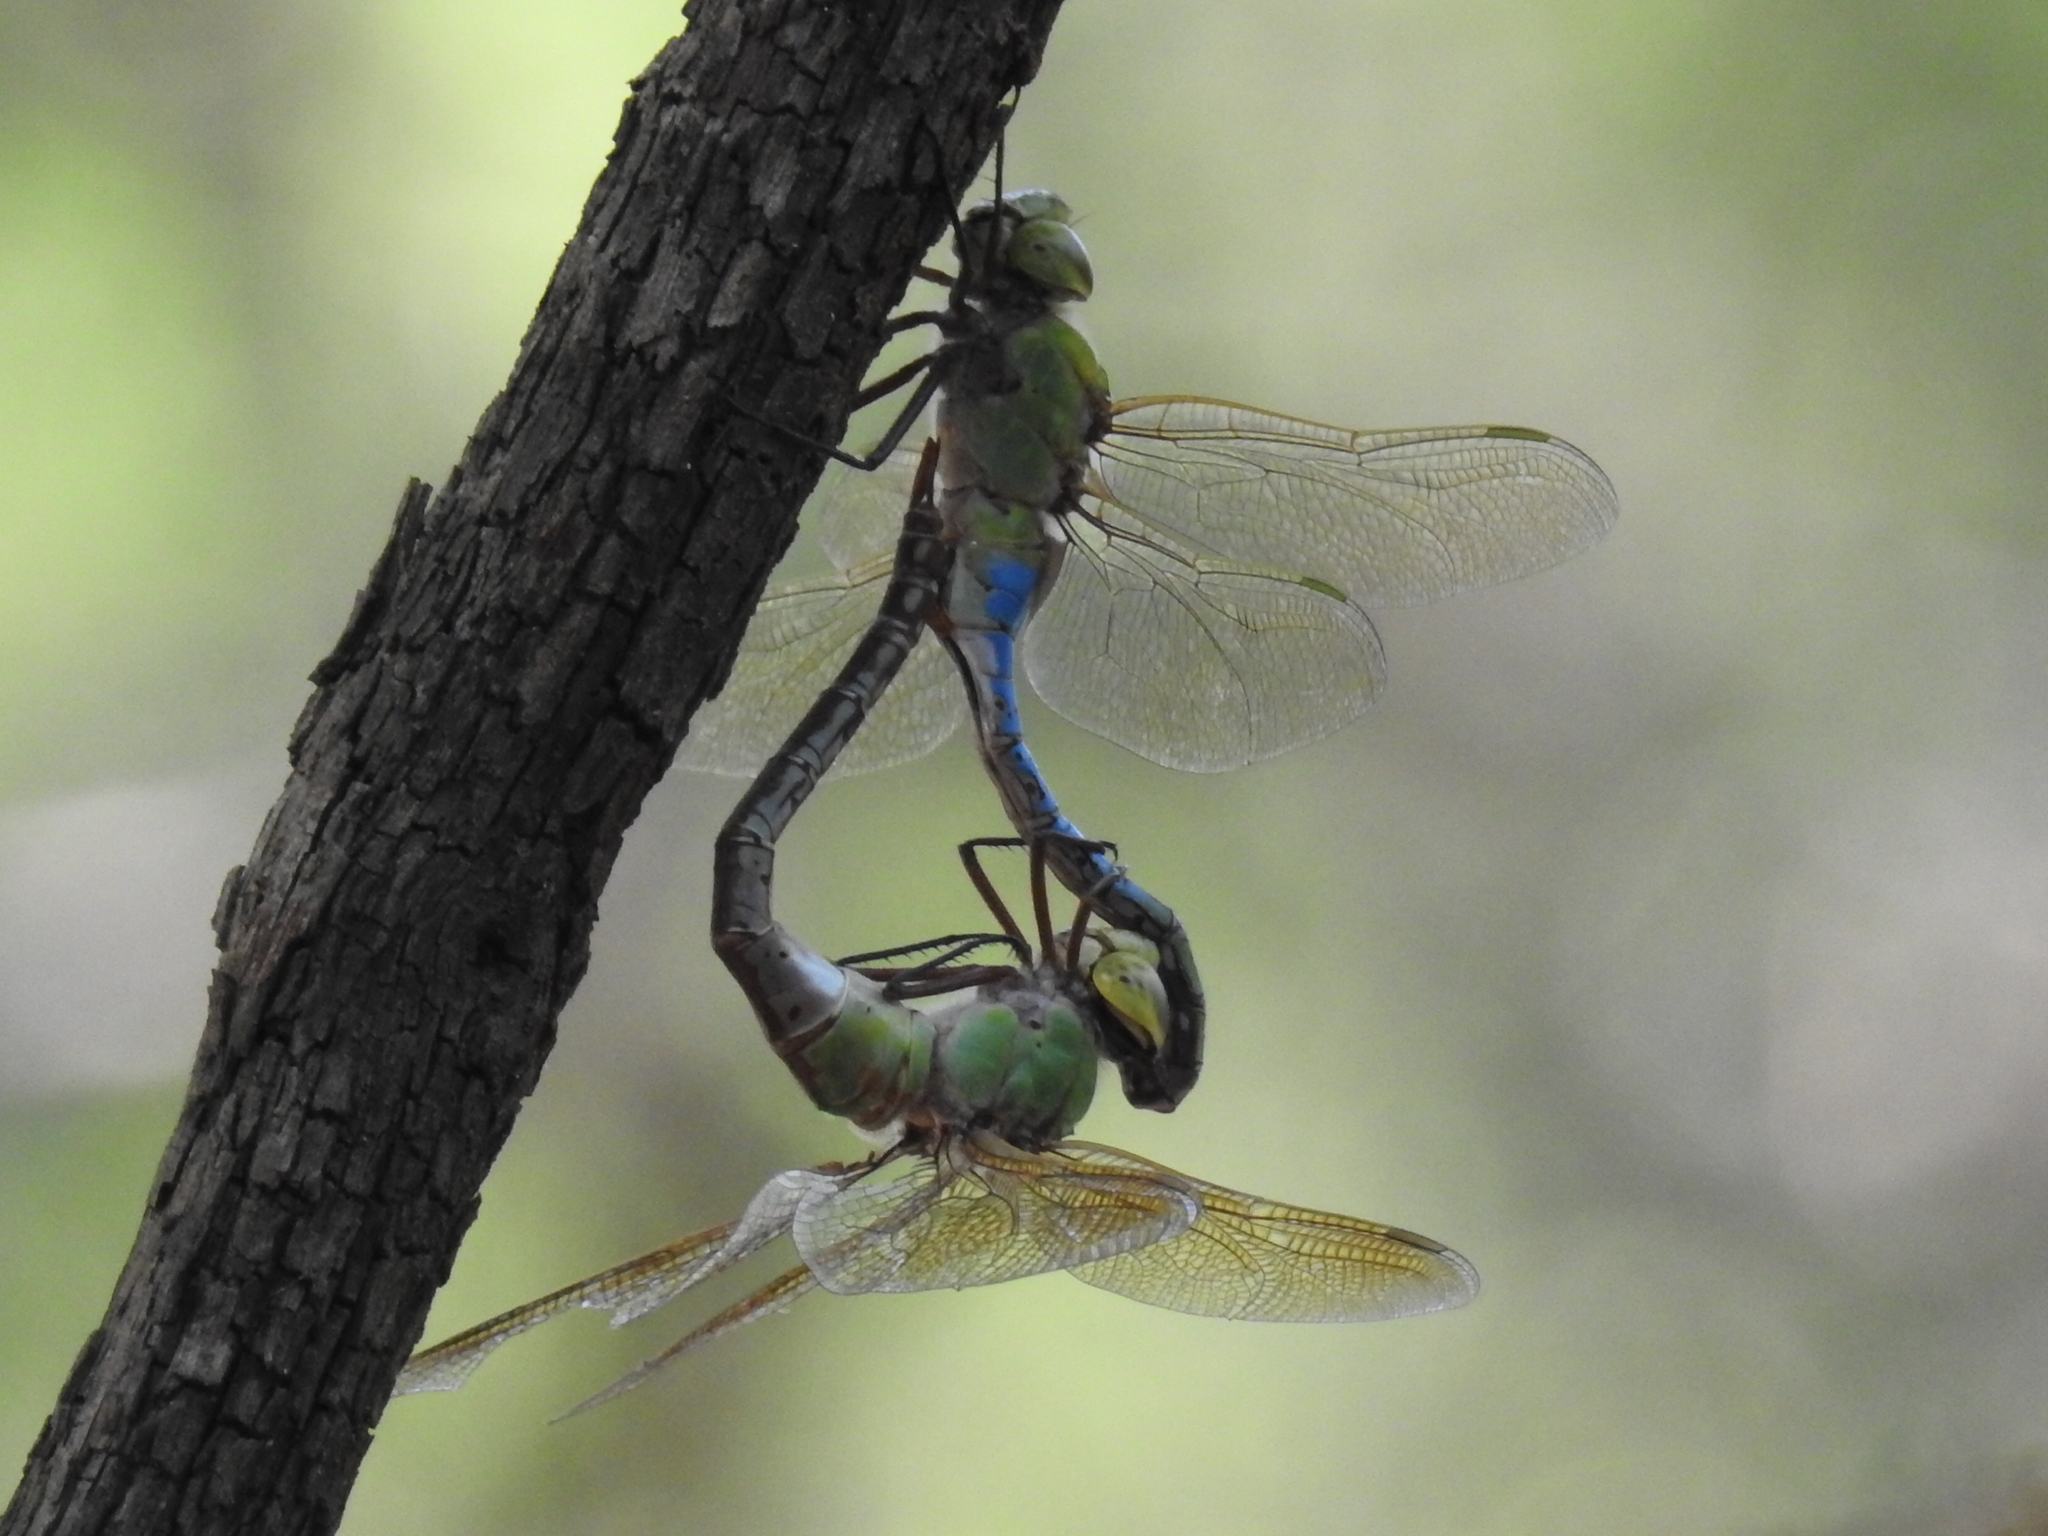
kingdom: Animalia
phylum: Arthropoda
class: Insecta
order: Odonata
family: Aeshnidae
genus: Anax
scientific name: Anax junius
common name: Common green darner
